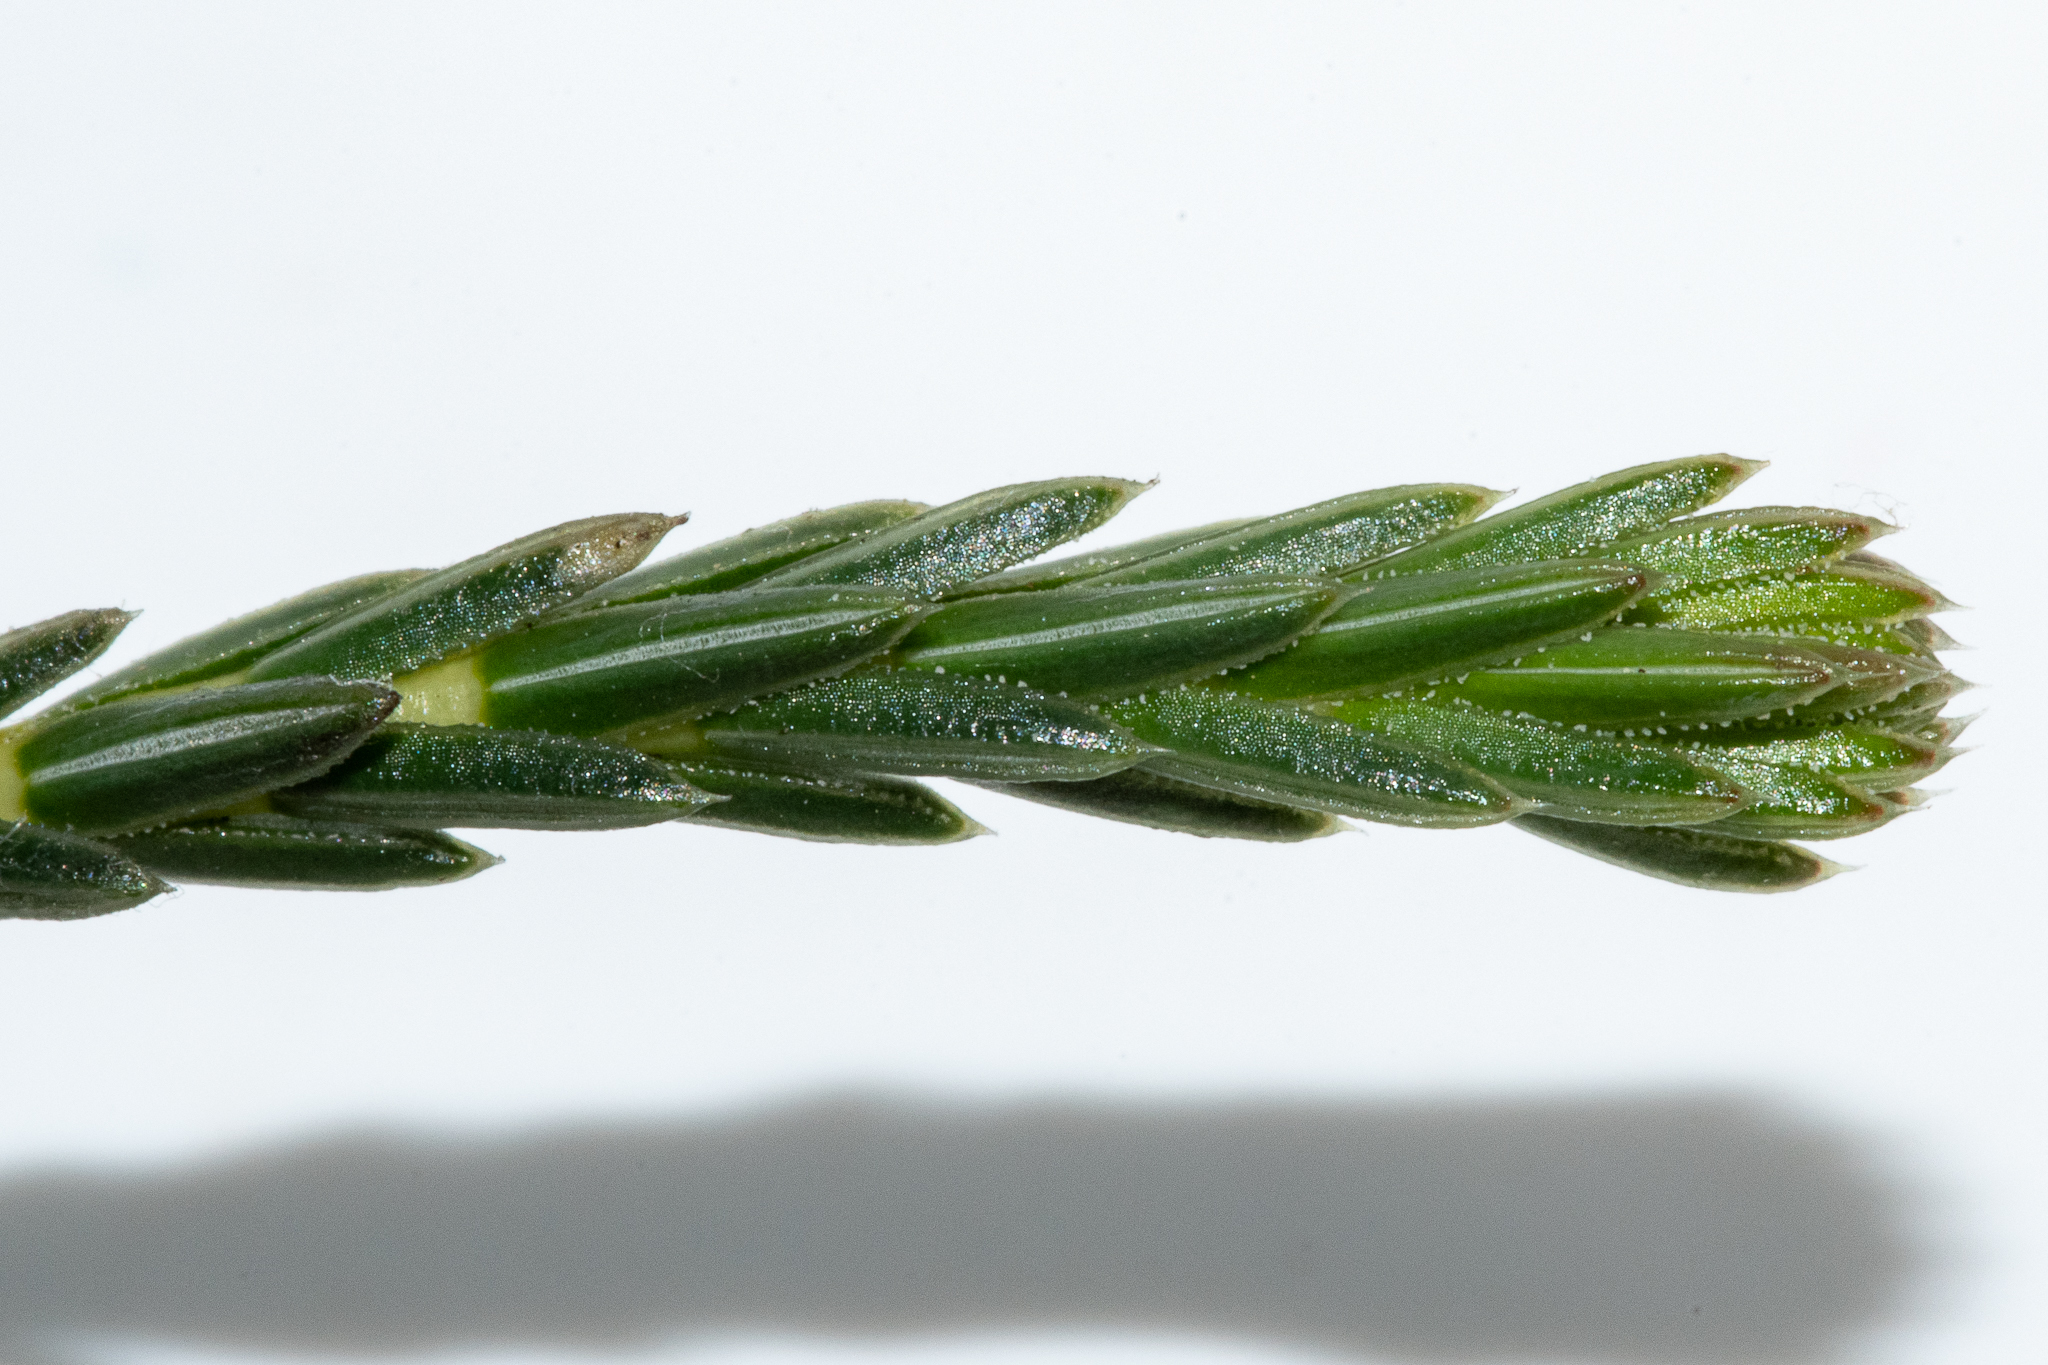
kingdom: Plantae
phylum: Tracheophyta
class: Magnoliopsida
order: Ericales
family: Ericaceae
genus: Erica
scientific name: Erica irbyana
